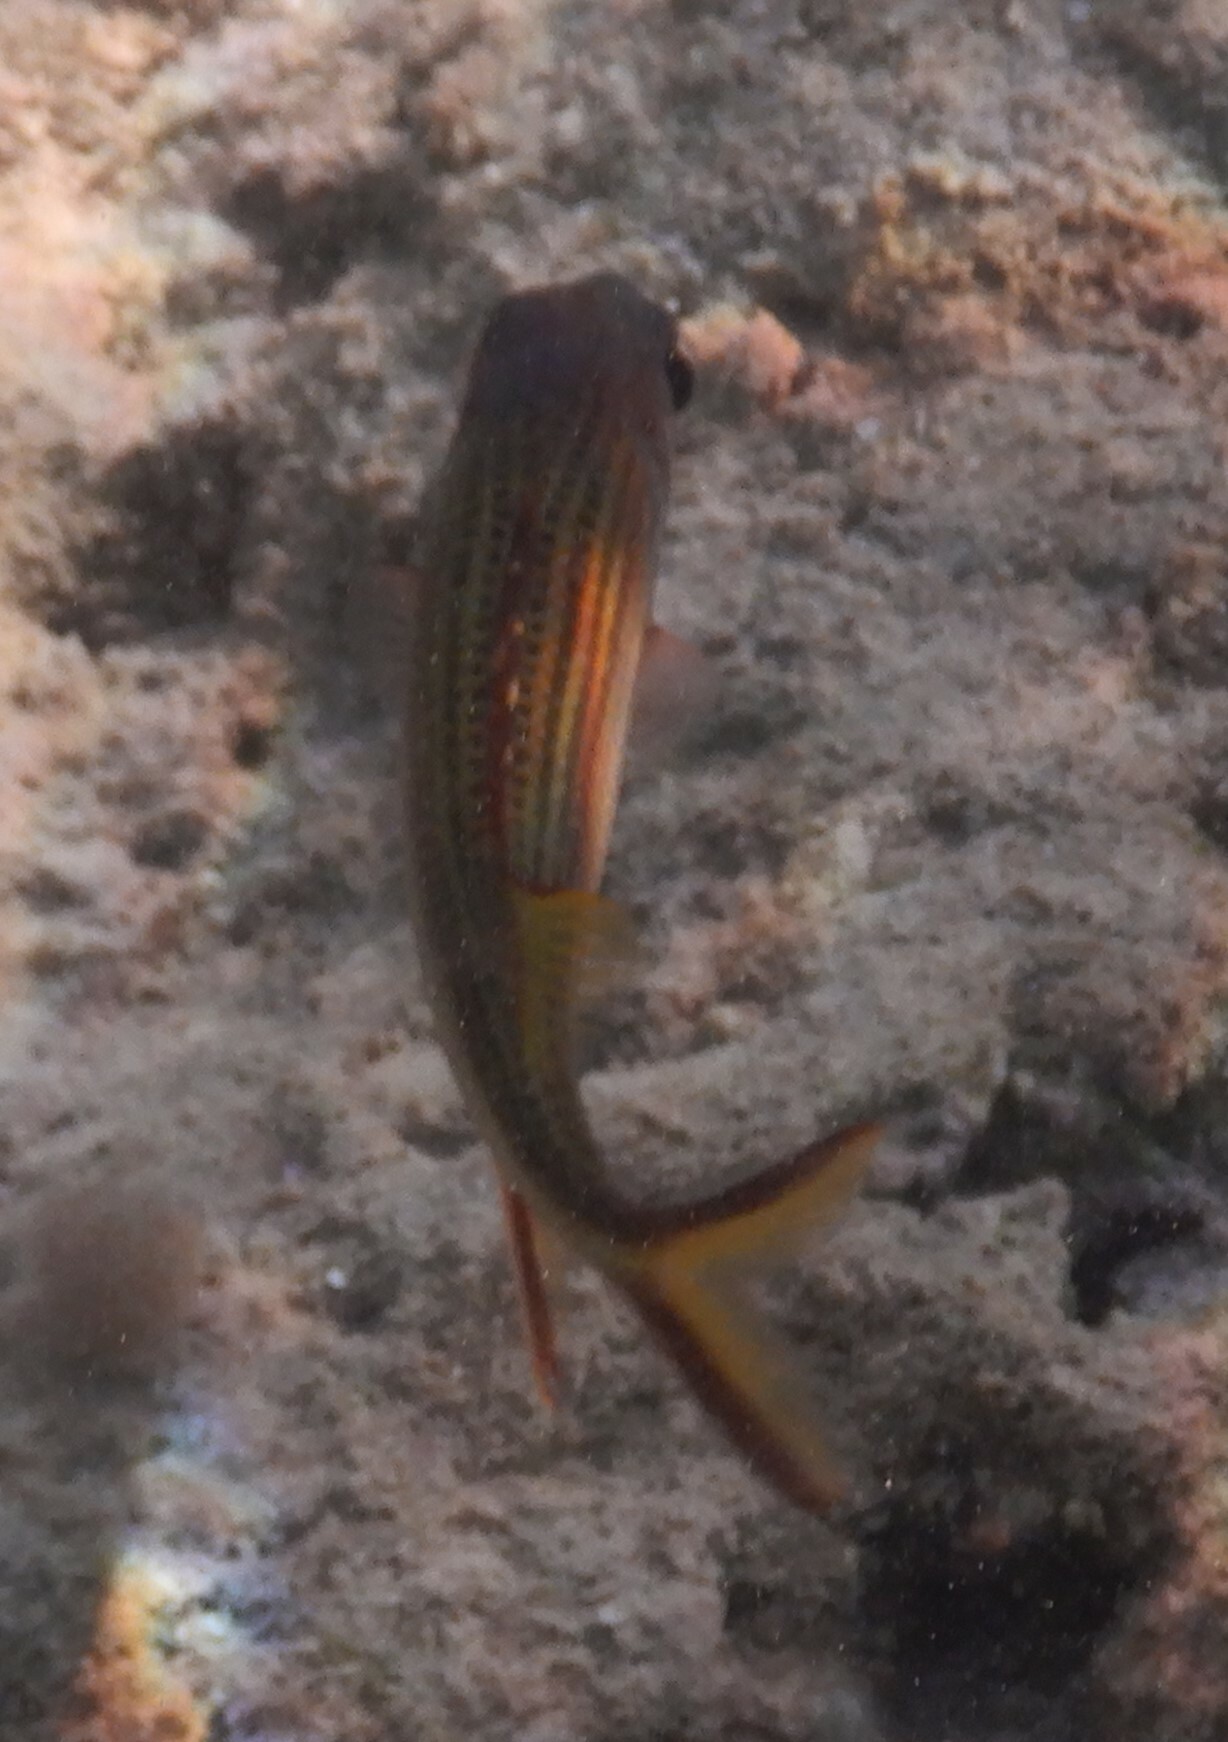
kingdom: Animalia
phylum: Chordata
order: Beryciformes
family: Holocentridae
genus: Neoniphon
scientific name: Neoniphon sammara
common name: Sammara squirrelfish
